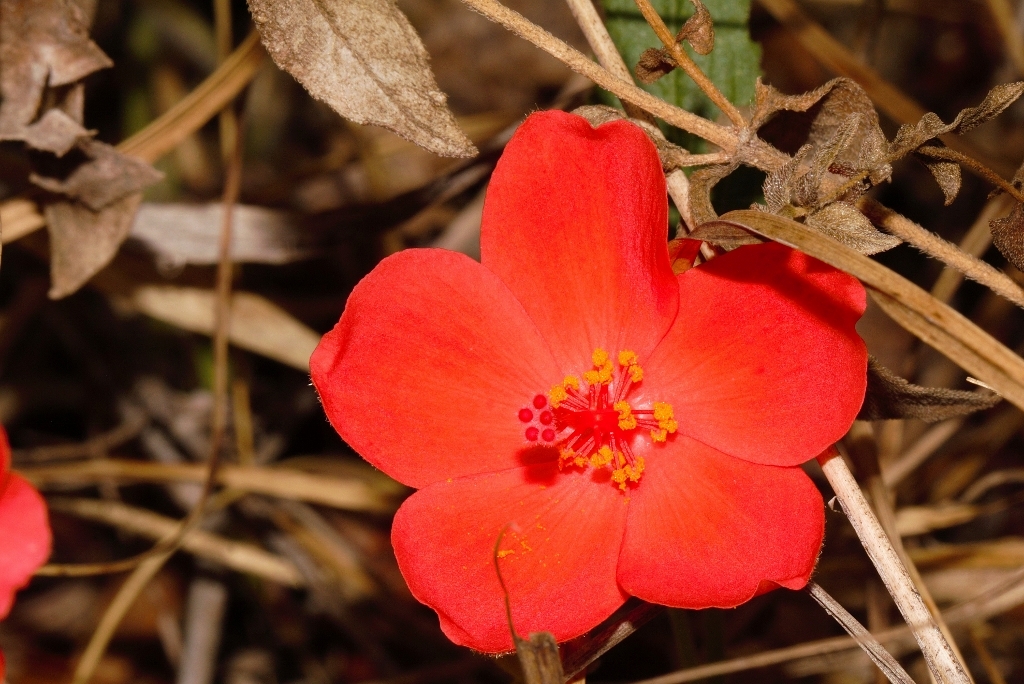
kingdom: Plantae
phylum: Tracheophyta
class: Magnoliopsida
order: Malvales
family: Malvaceae
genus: Hibiscus
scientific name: Hibiscus rhodanthus
